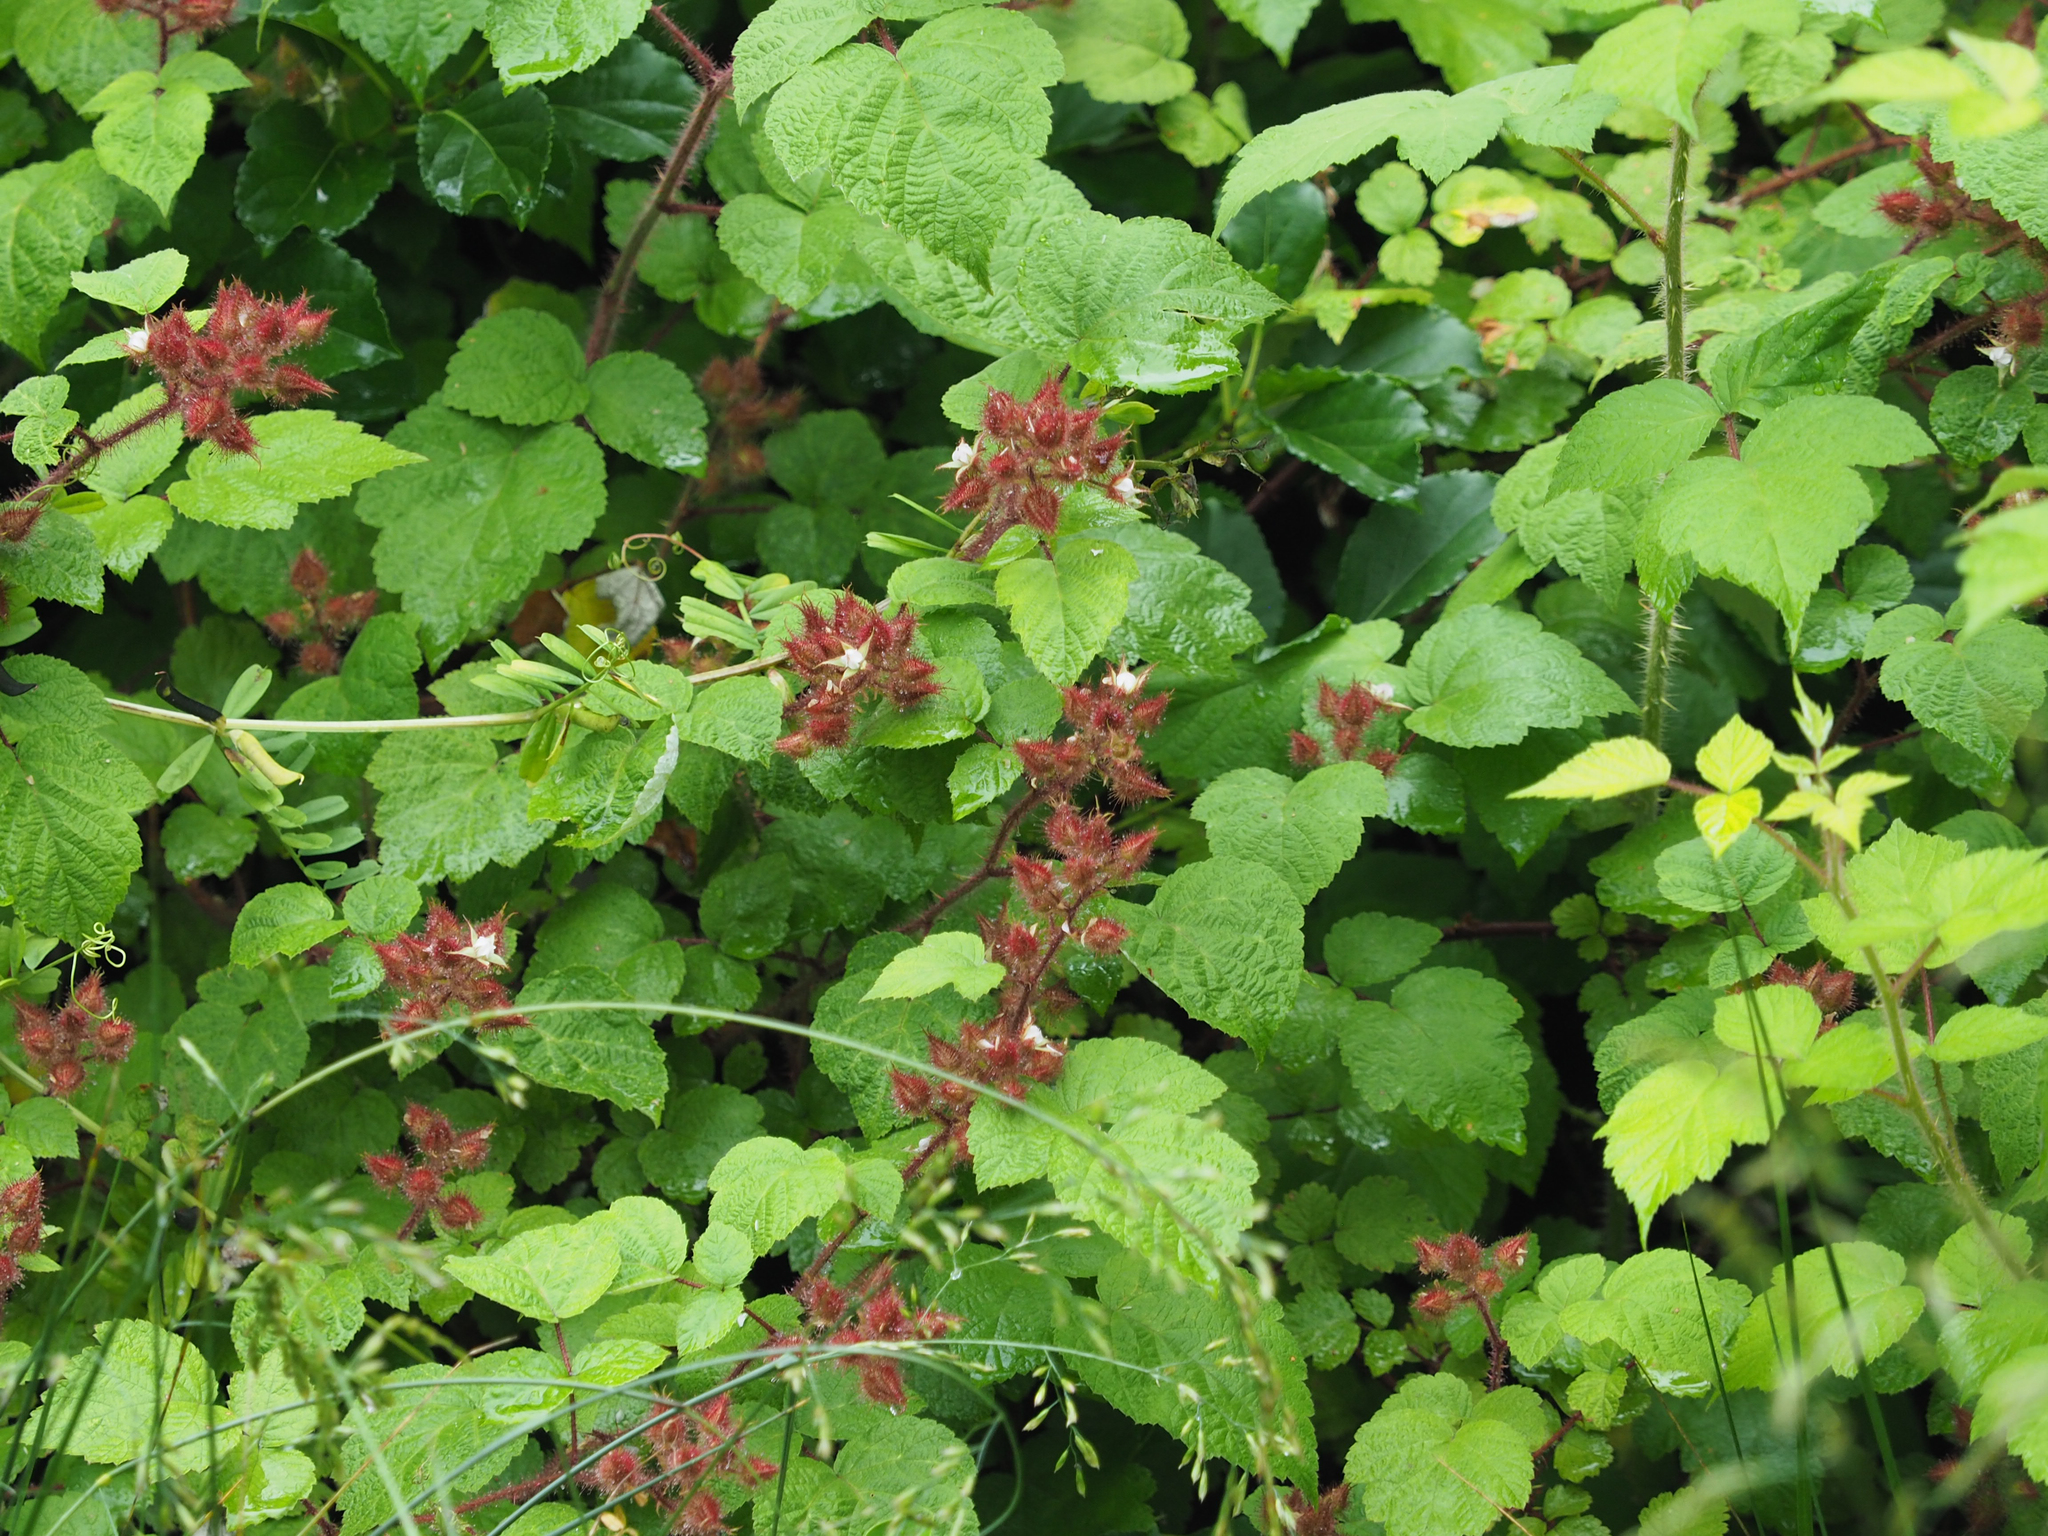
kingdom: Plantae
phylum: Tracheophyta
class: Magnoliopsida
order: Rosales
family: Rosaceae
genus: Rubus
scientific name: Rubus phoenicolasius
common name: Japanese wineberry
